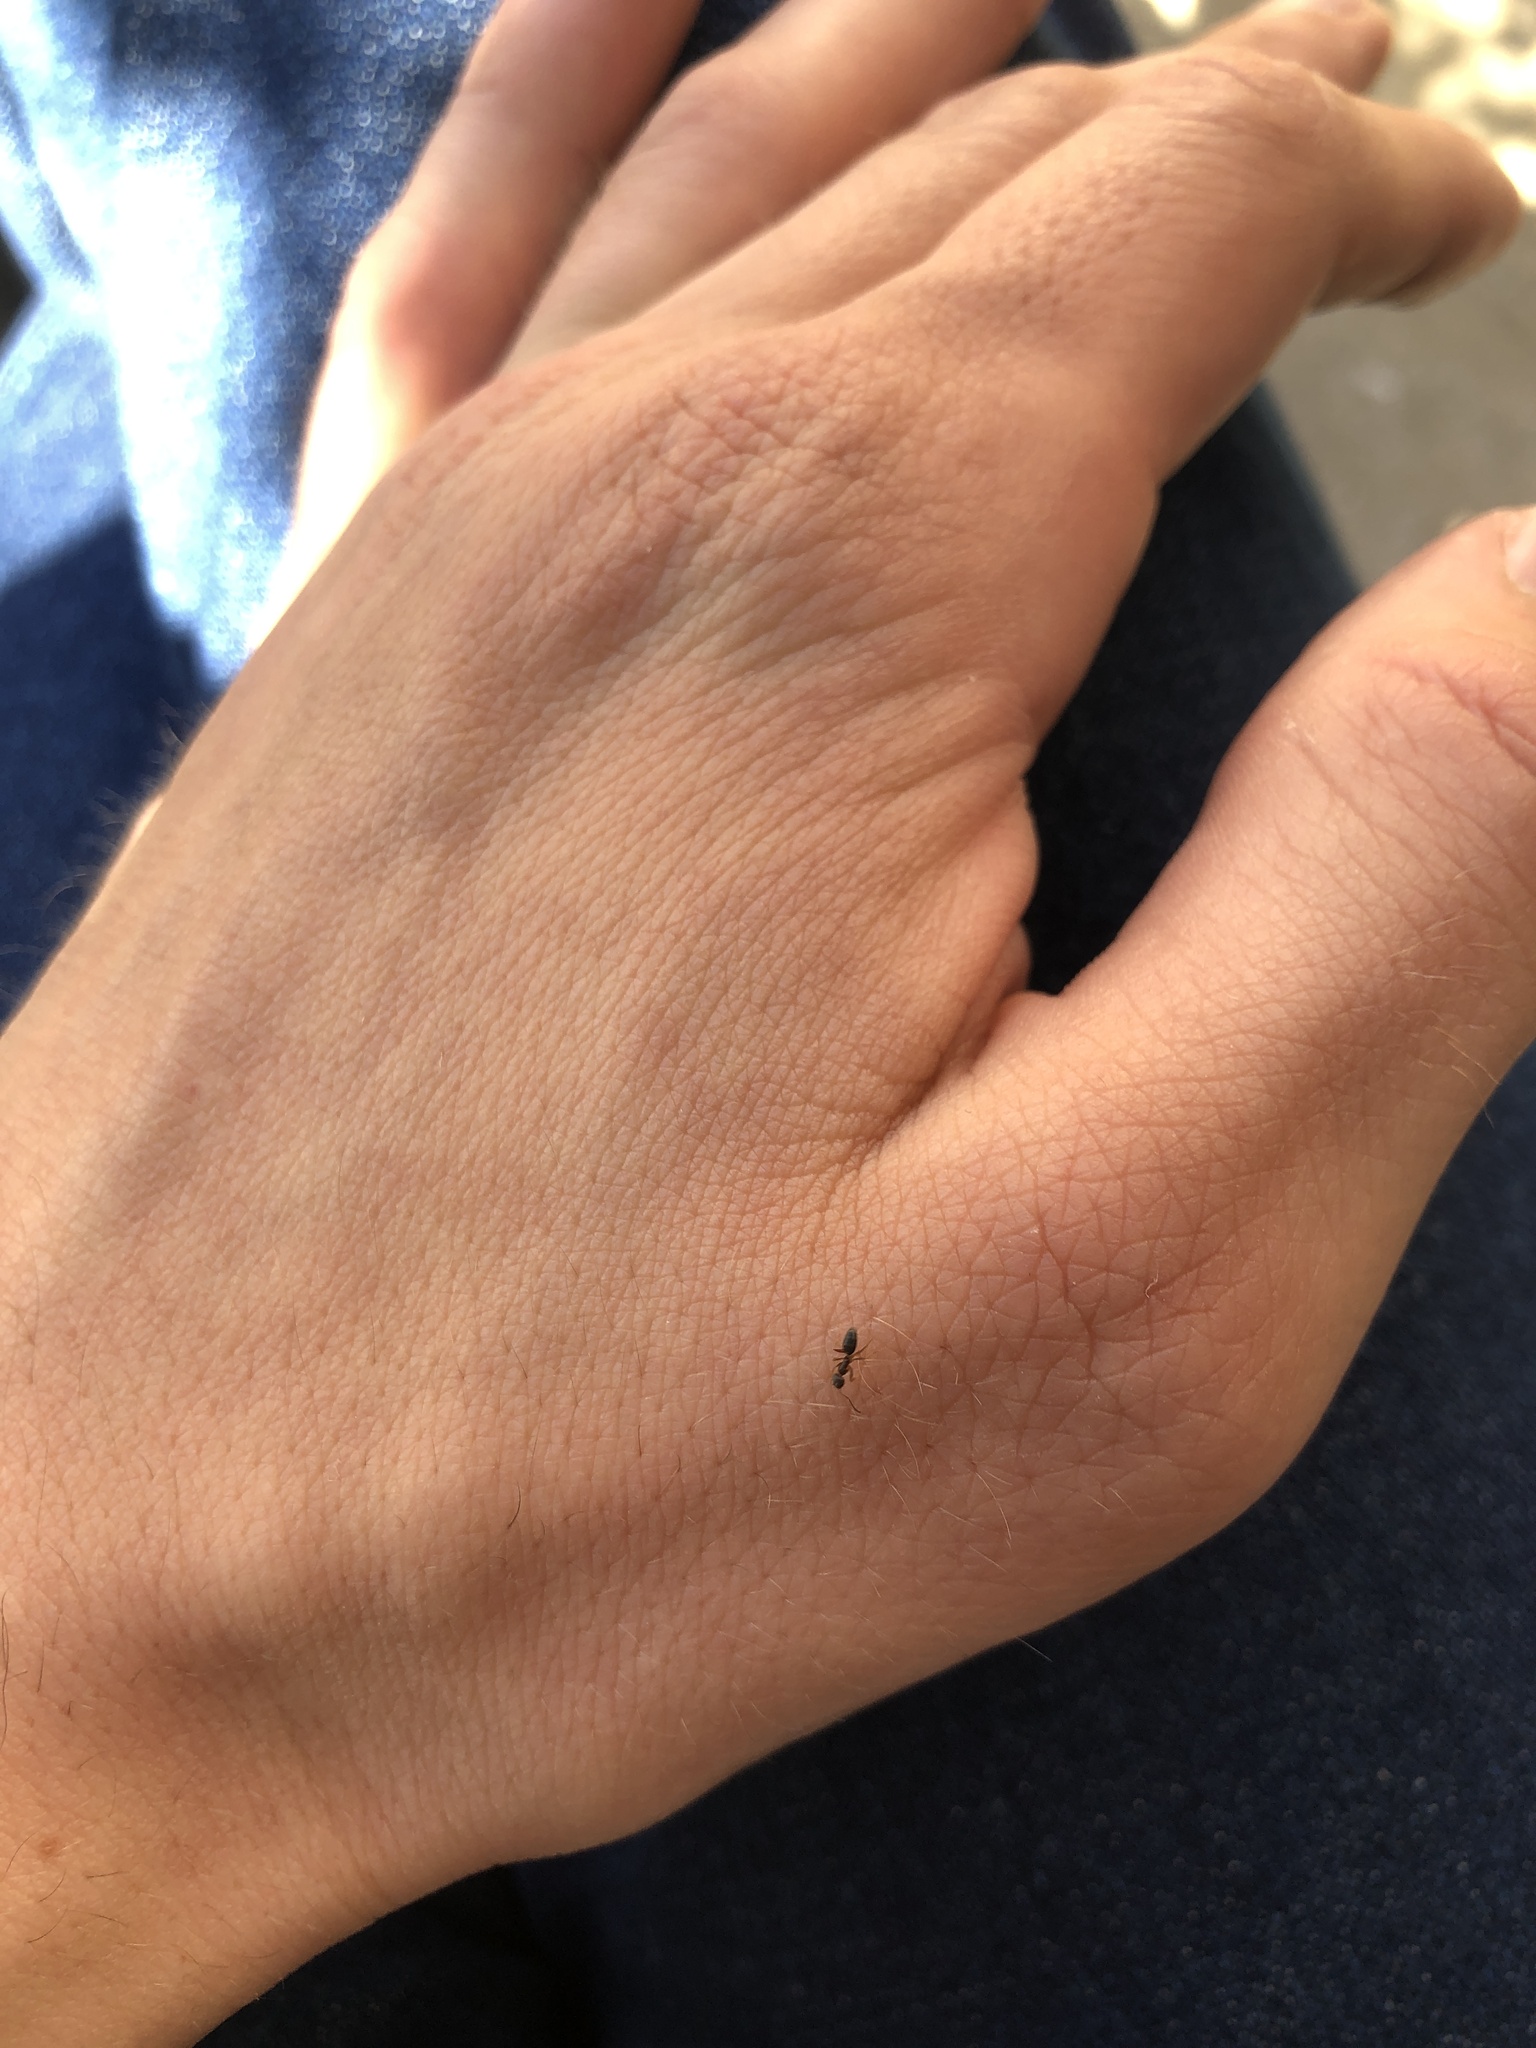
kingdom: Animalia
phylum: Arthropoda
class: Insecta
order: Hymenoptera
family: Formicidae
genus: Tapinoma
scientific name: Tapinoma sessile
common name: Odorous house ant
